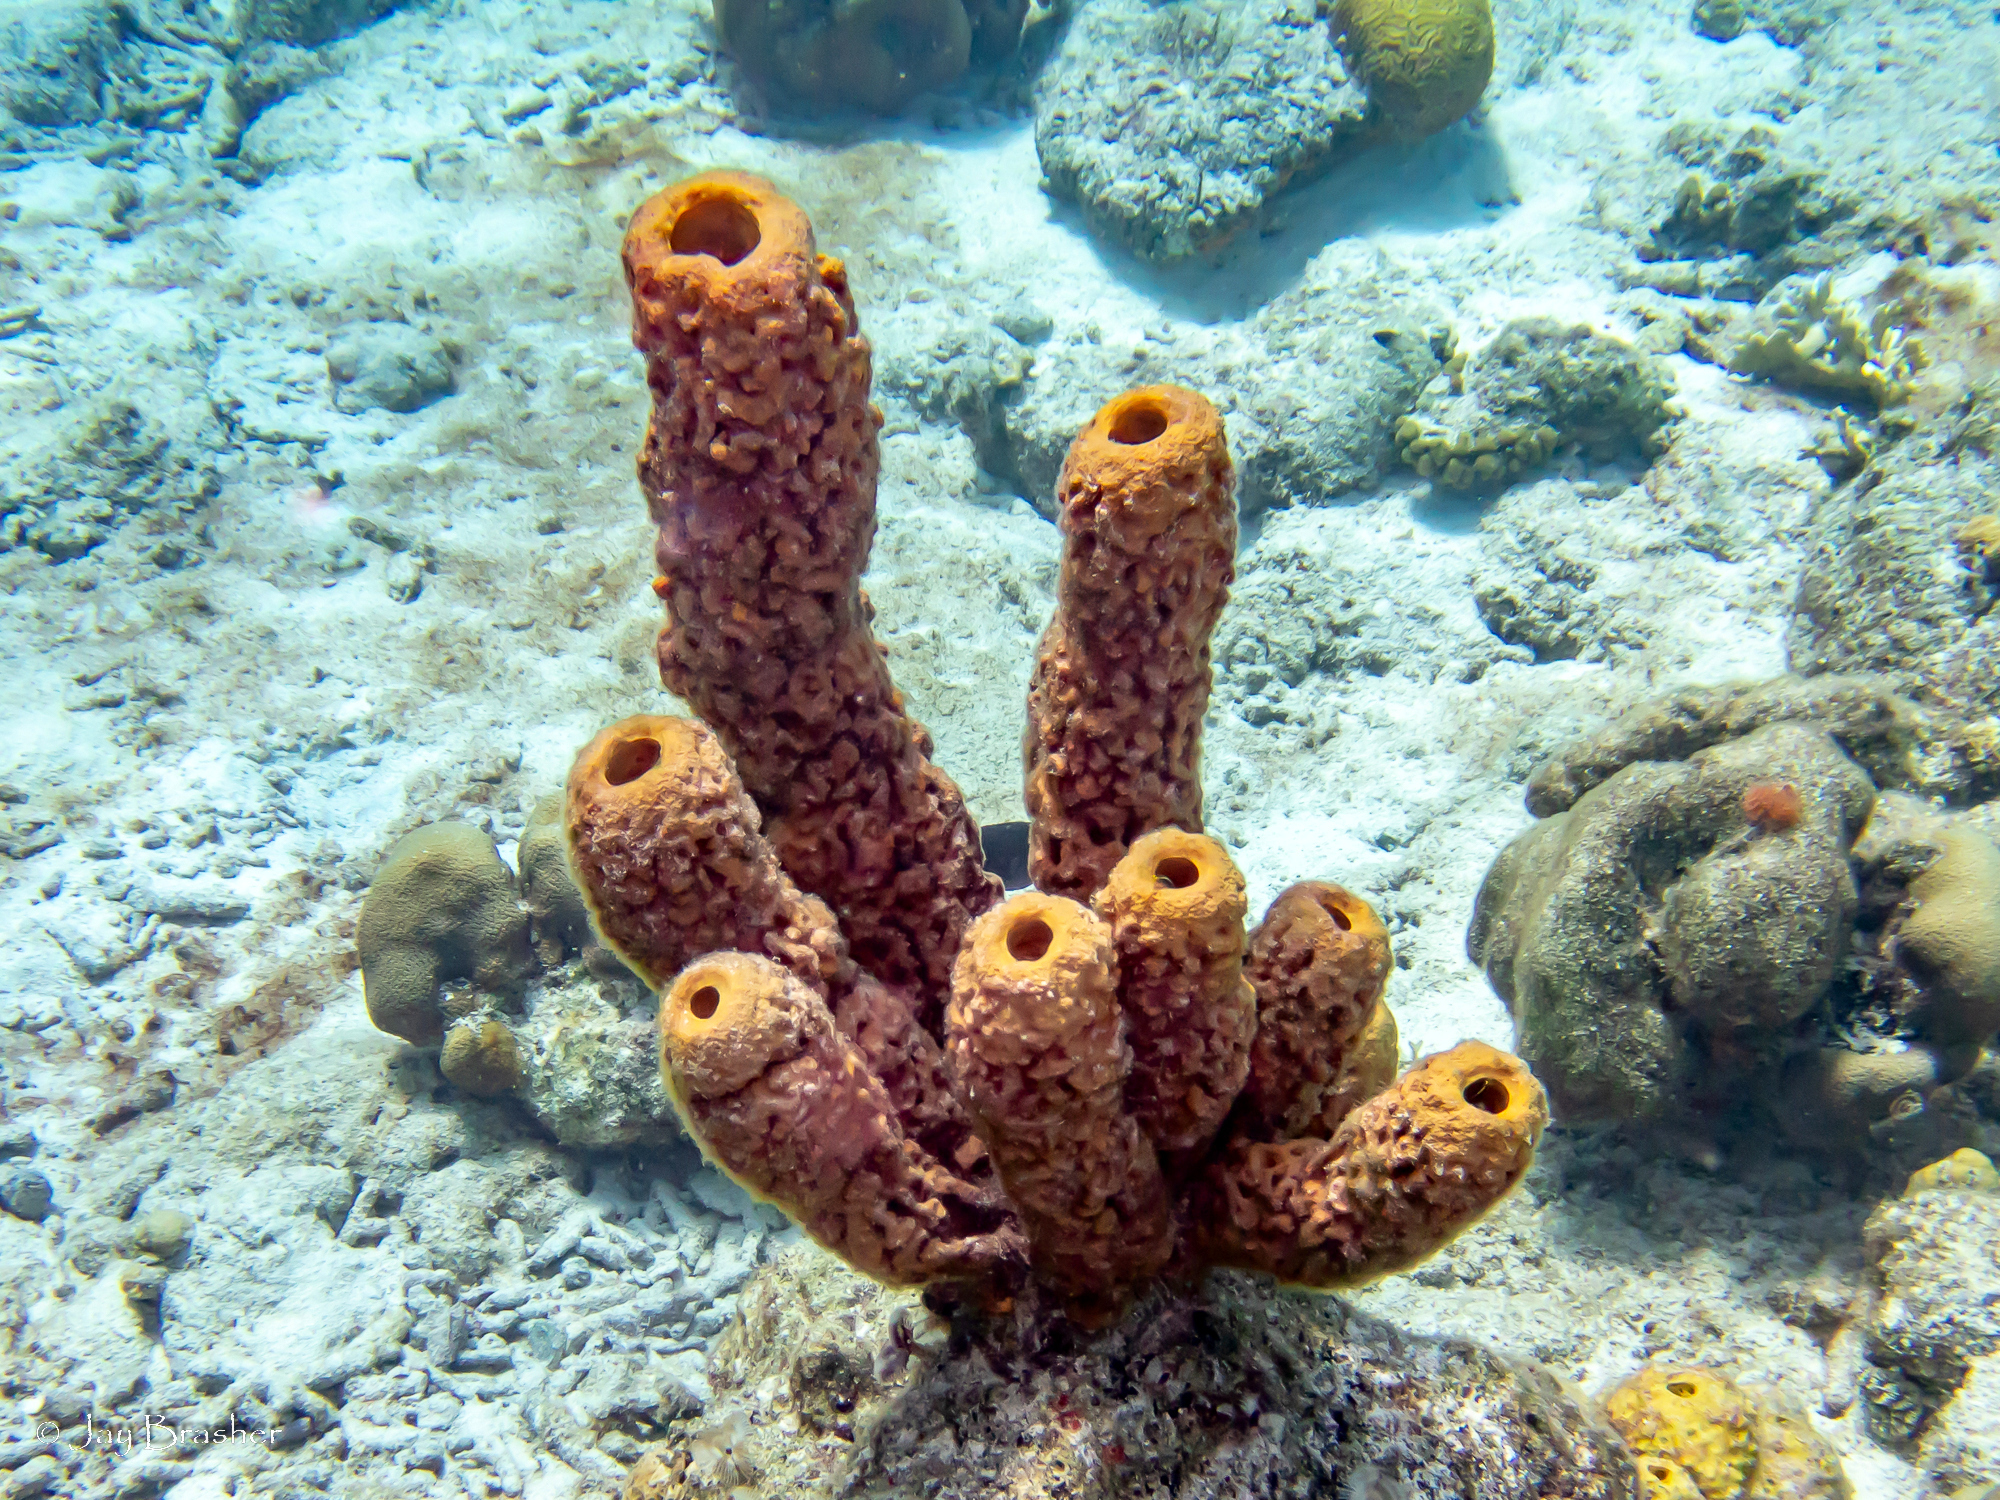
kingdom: Animalia
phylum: Porifera
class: Demospongiae
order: Verongiida
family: Aplysinidae
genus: Aplysina
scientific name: Aplysina archeri
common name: Stove-pipe sponge
